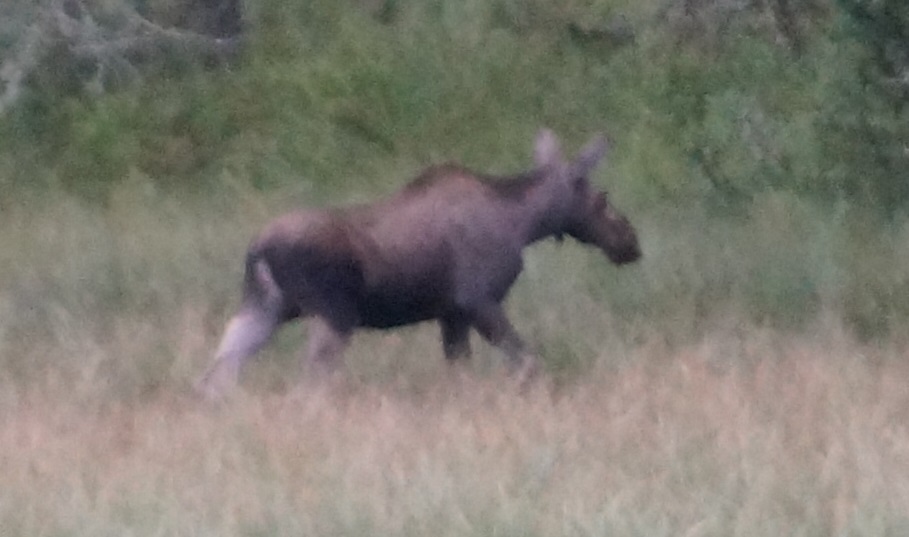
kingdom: Animalia
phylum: Chordata
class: Mammalia
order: Artiodactyla
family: Cervidae
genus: Alces
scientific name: Alces alces
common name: Moose
